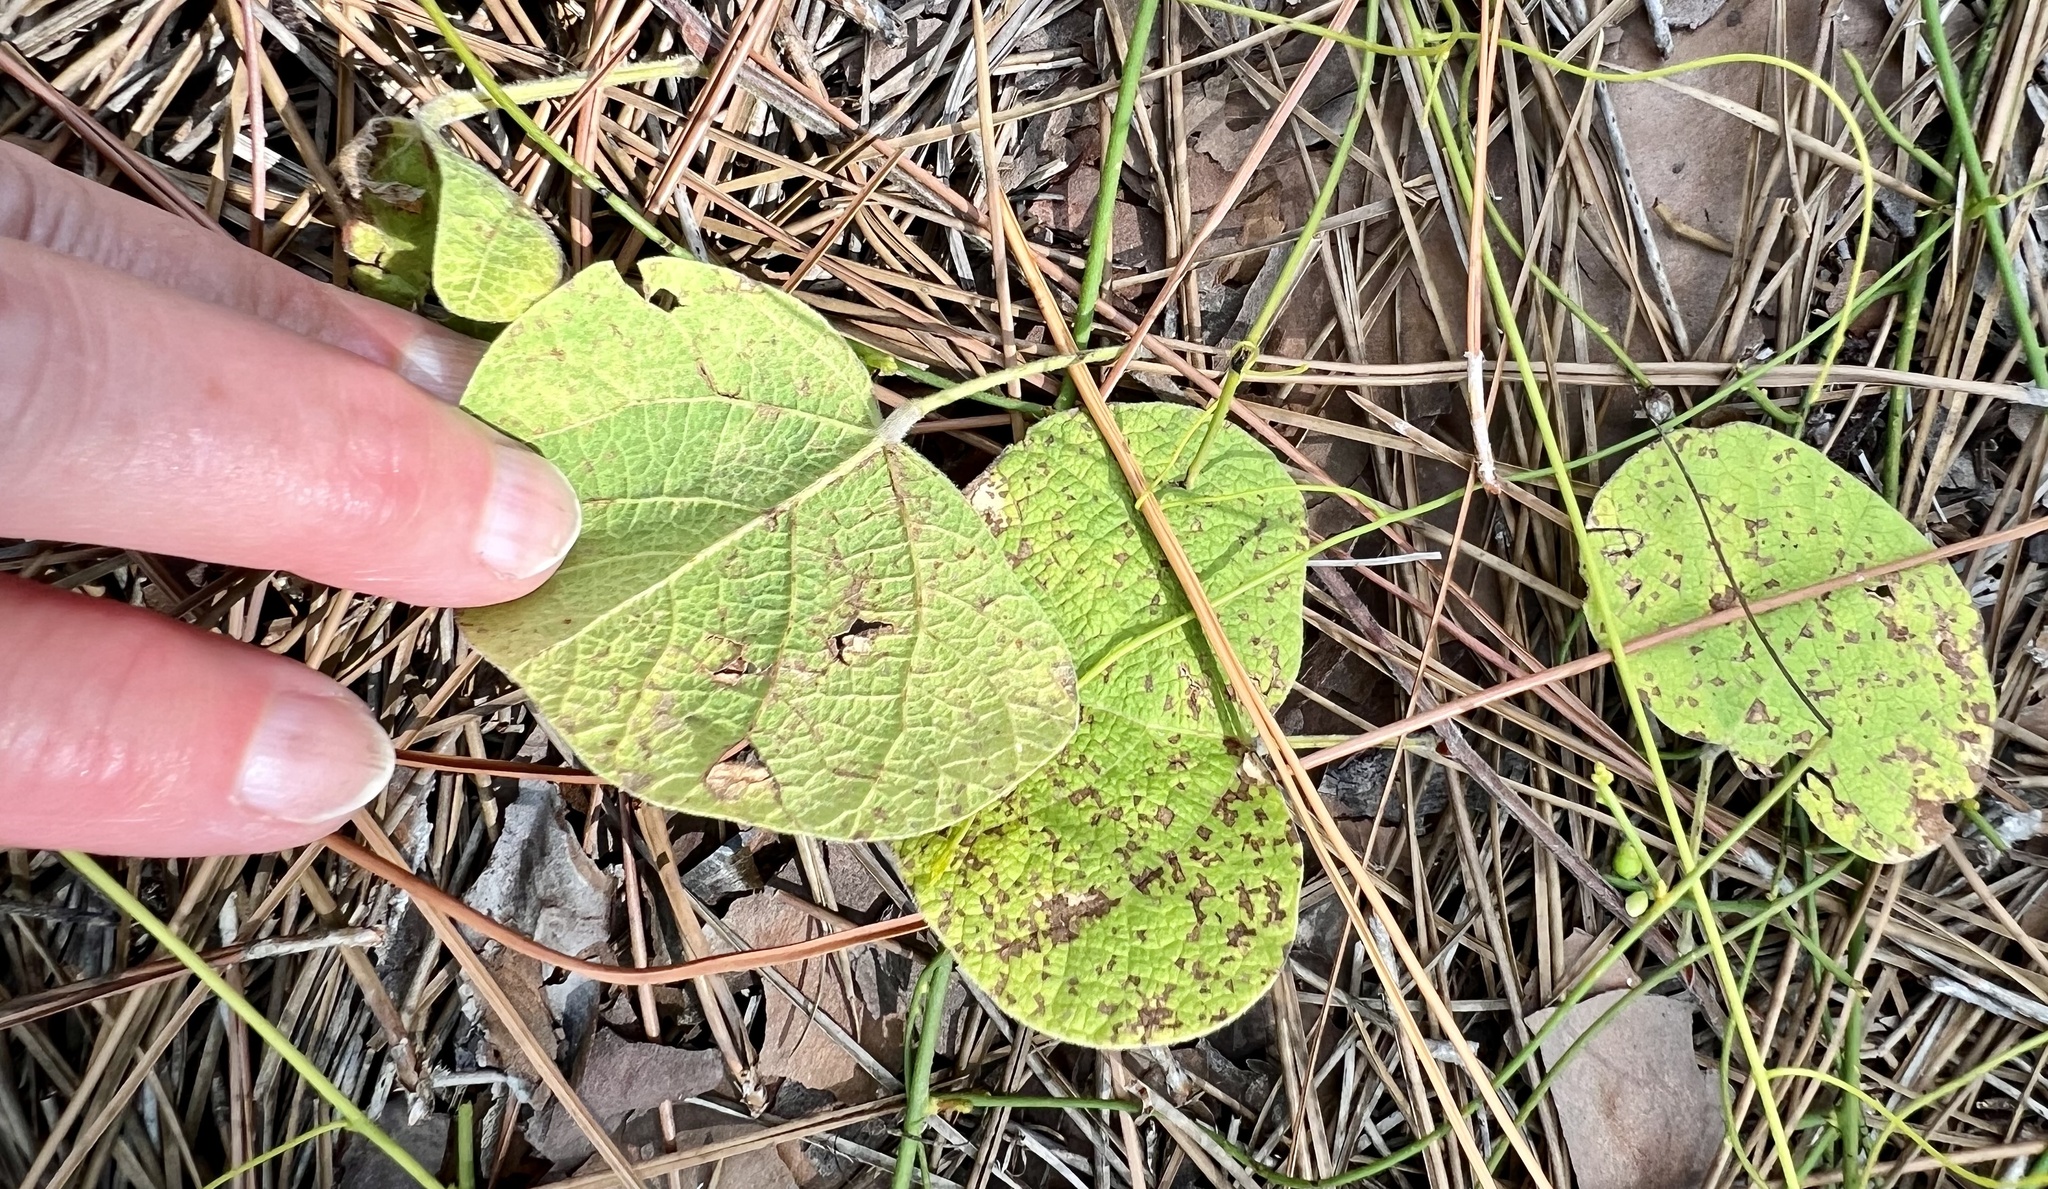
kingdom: Plantae
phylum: Tracheophyta
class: Magnoliopsida
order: Fabales
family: Fabaceae
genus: Rhynchosia
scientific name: Rhynchosia michauxii
